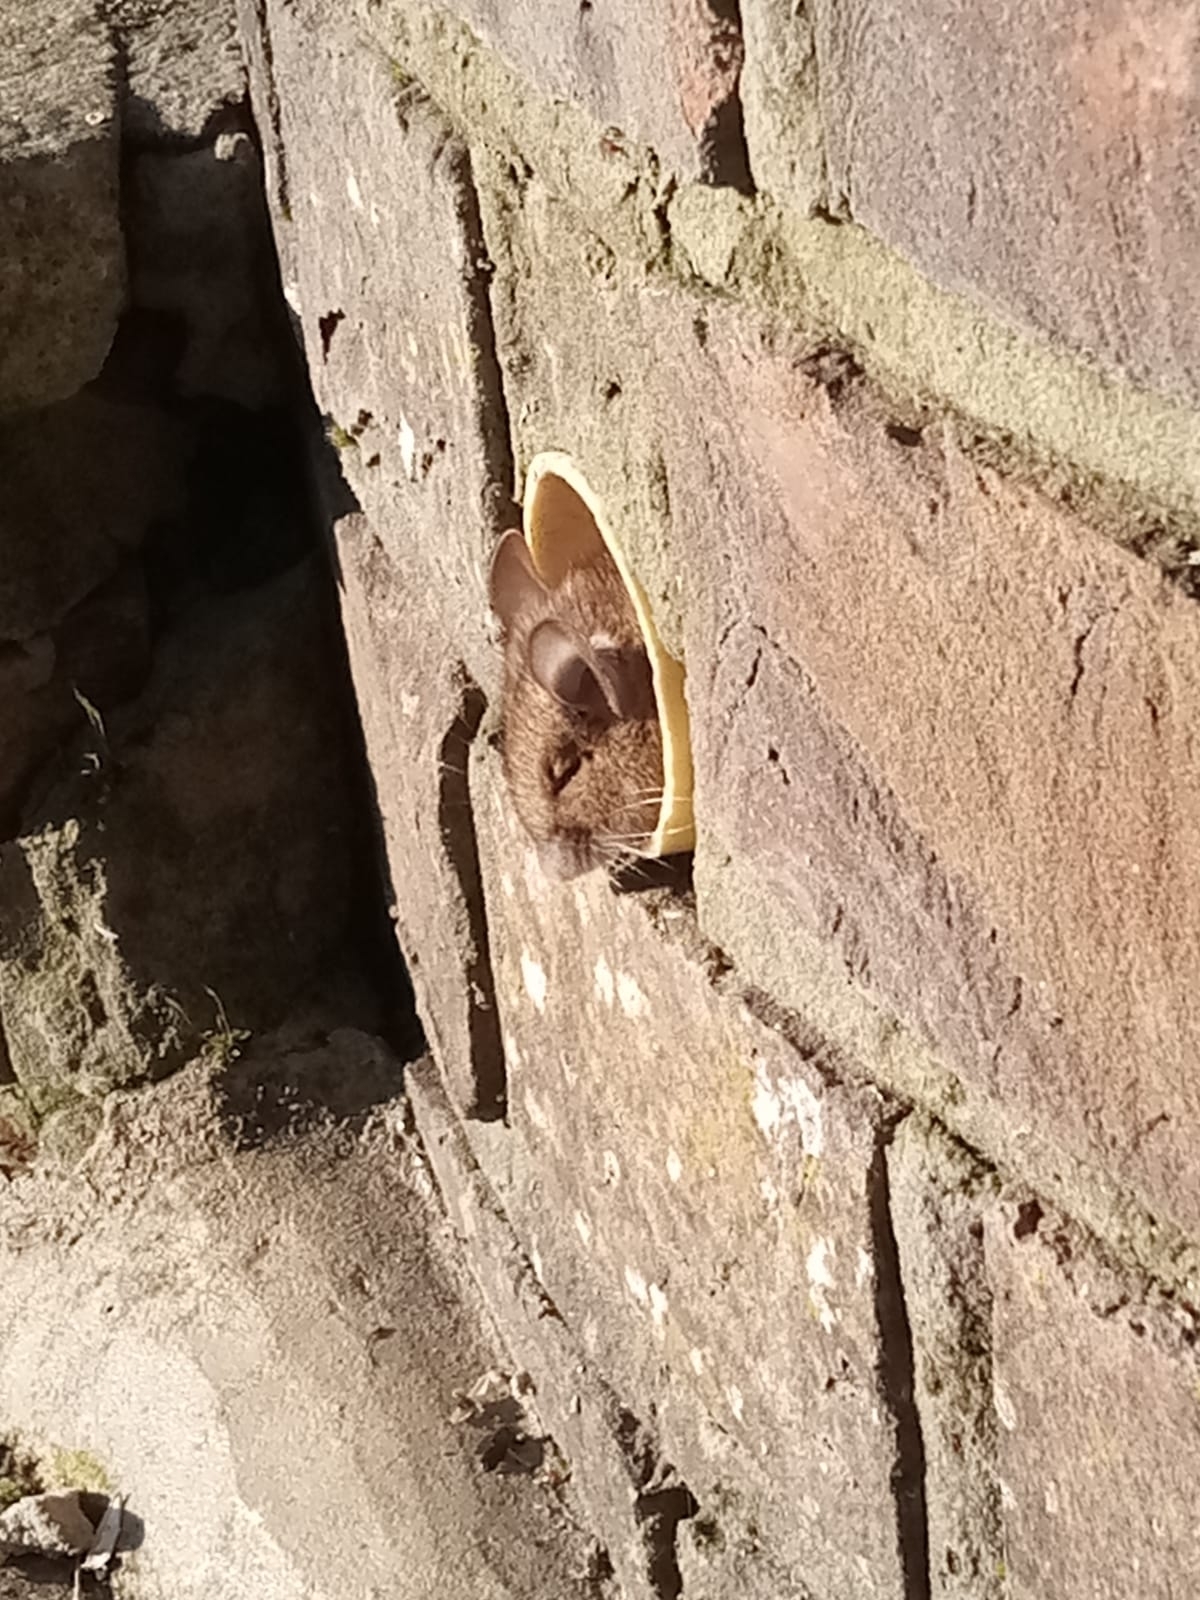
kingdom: Animalia
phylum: Chordata
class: Mammalia
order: Rodentia
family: Muridae
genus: Mus
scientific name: Mus musculus
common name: House mouse
